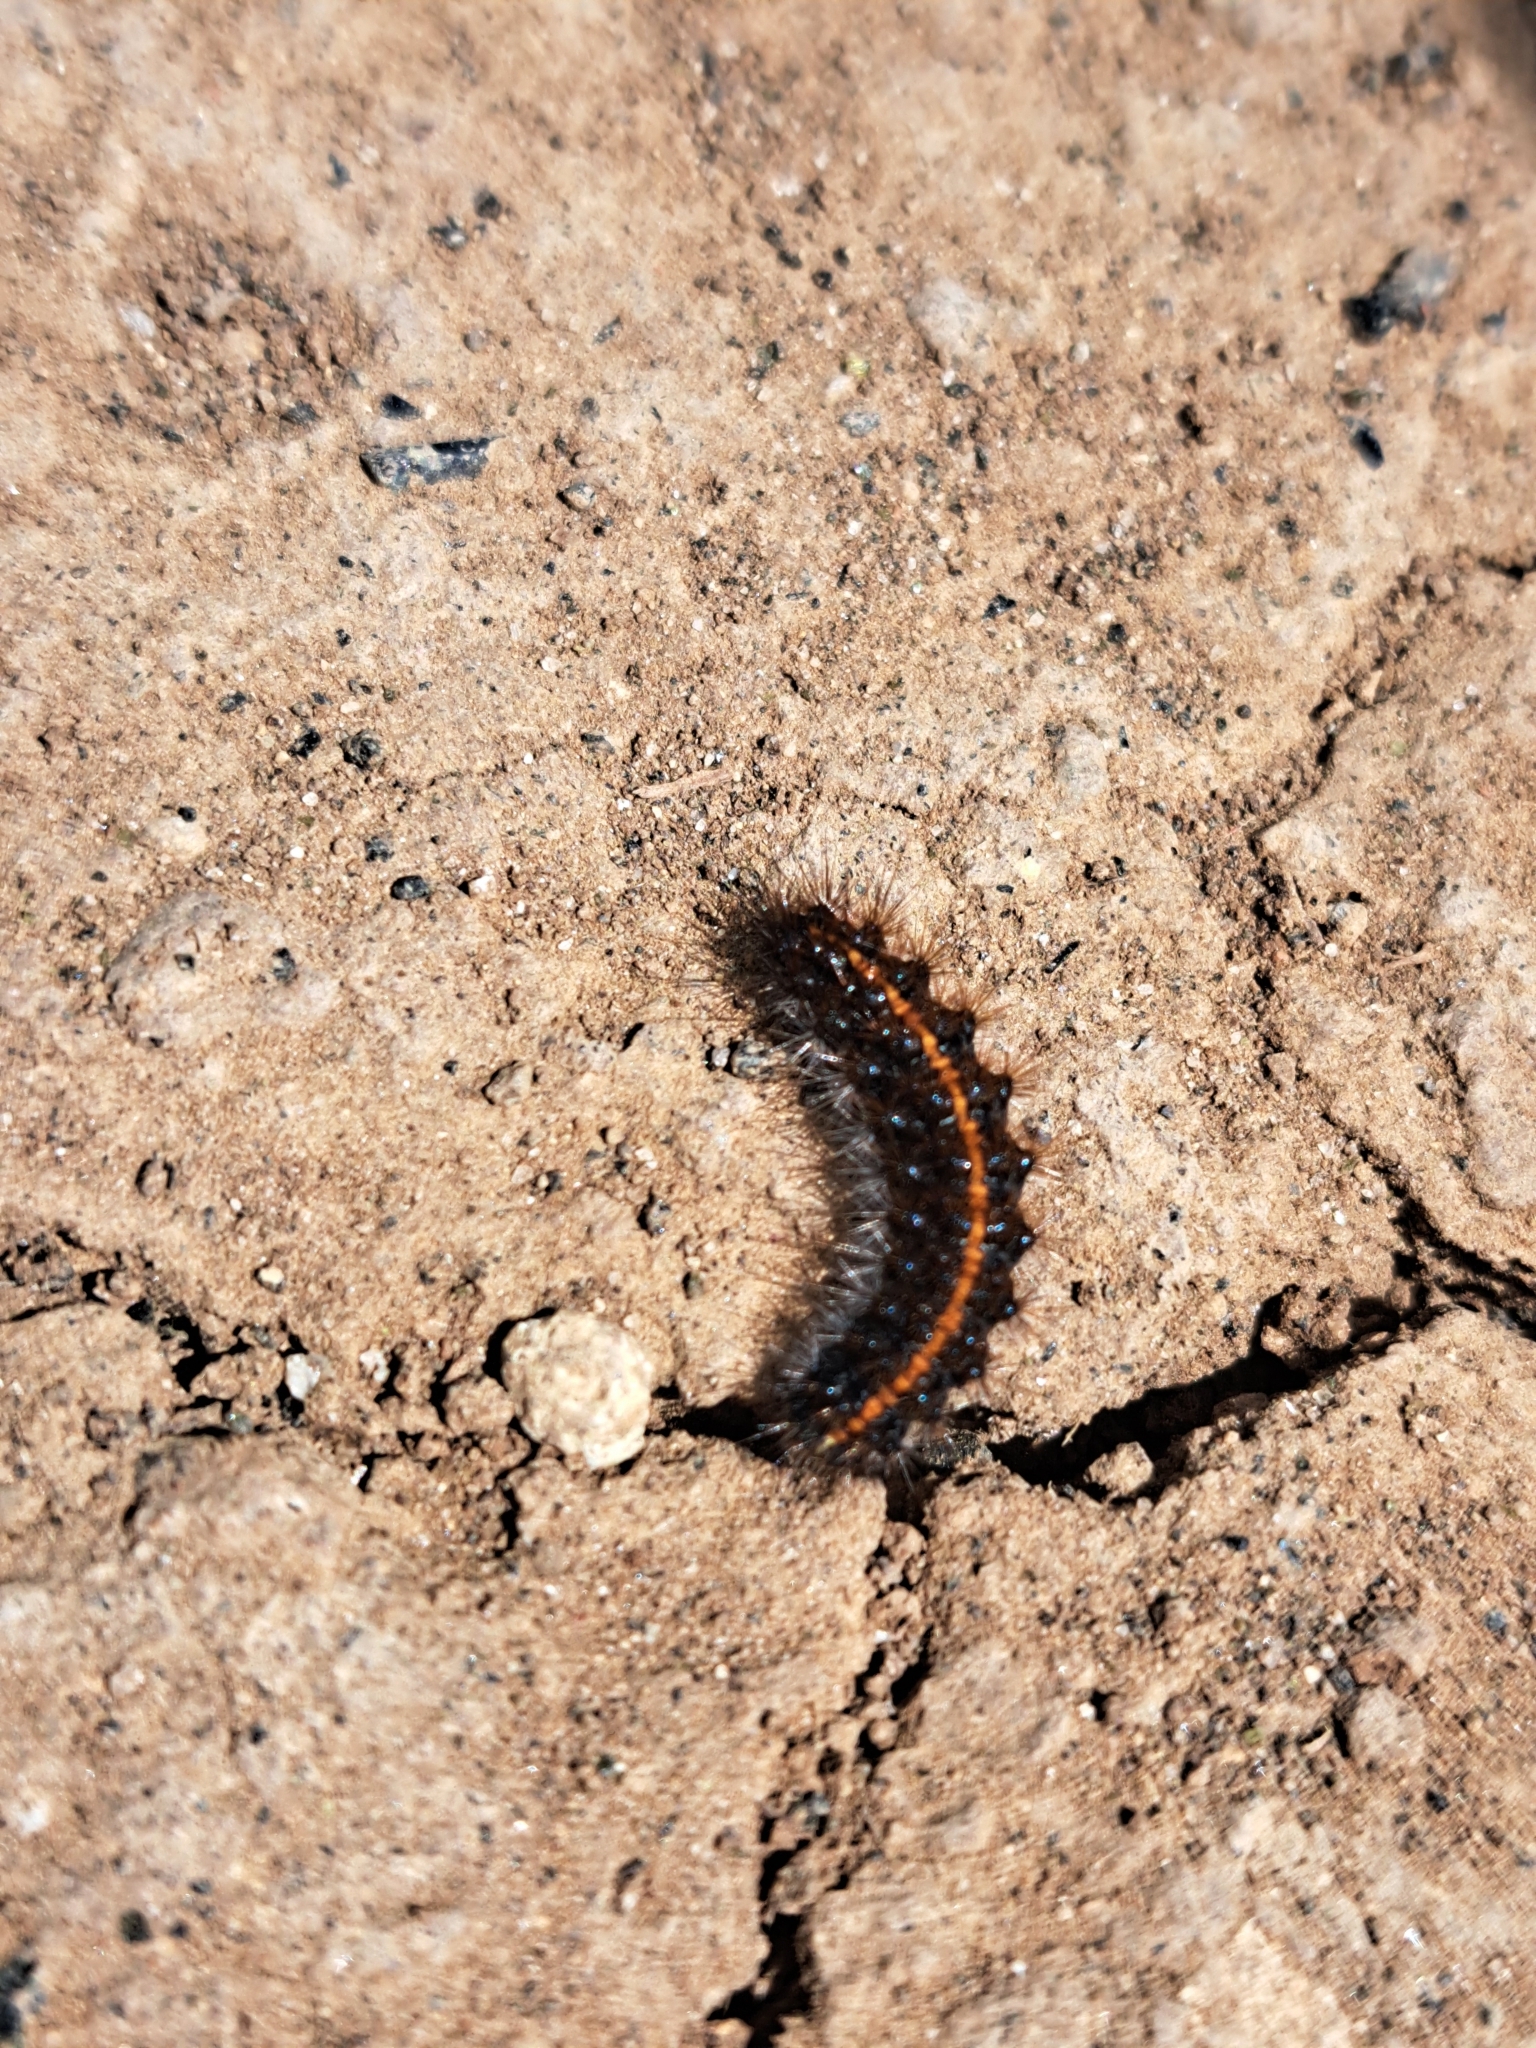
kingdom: Animalia
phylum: Arthropoda
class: Insecta
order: Lepidoptera
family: Erebidae
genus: Coscinia
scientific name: Coscinia Spiris striata
